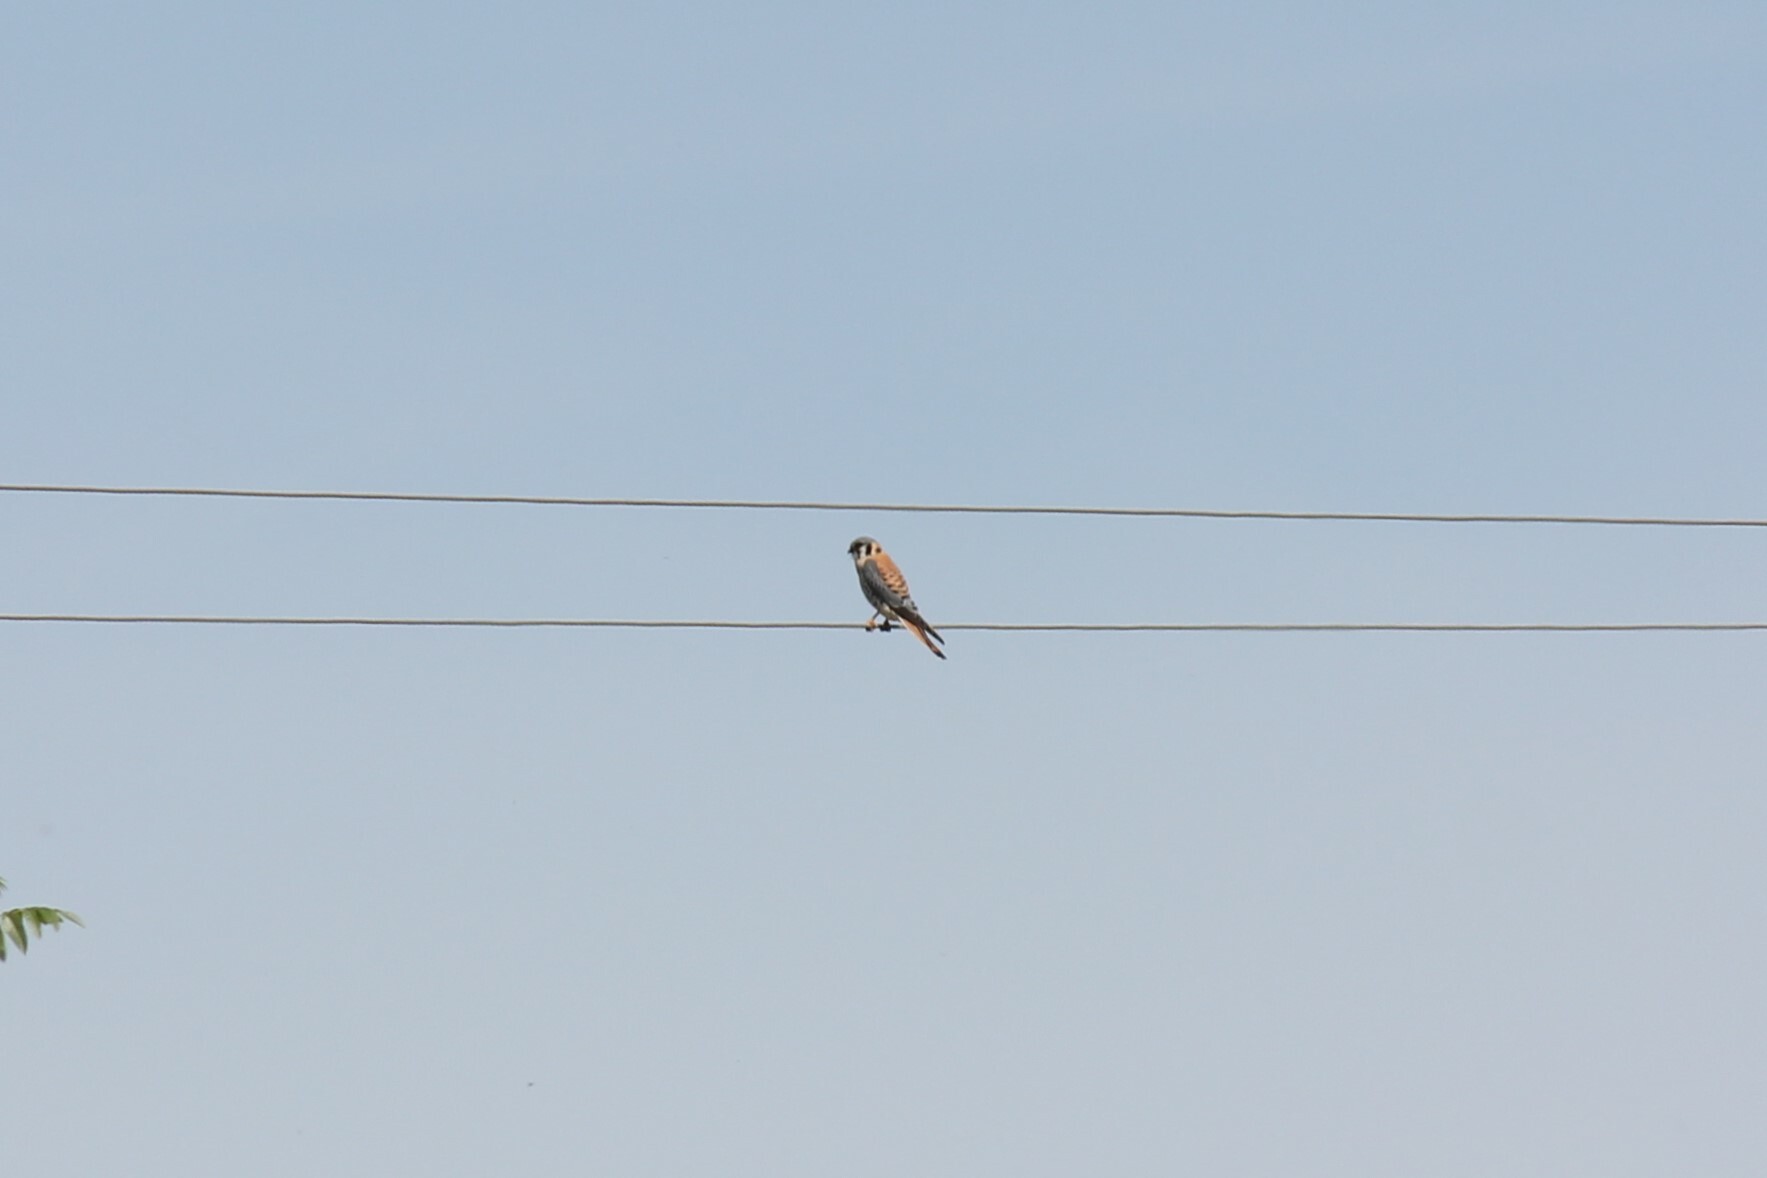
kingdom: Animalia
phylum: Chordata
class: Aves
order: Falconiformes
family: Falconidae
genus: Falco
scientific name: Falco sparverius
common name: American kestrel
